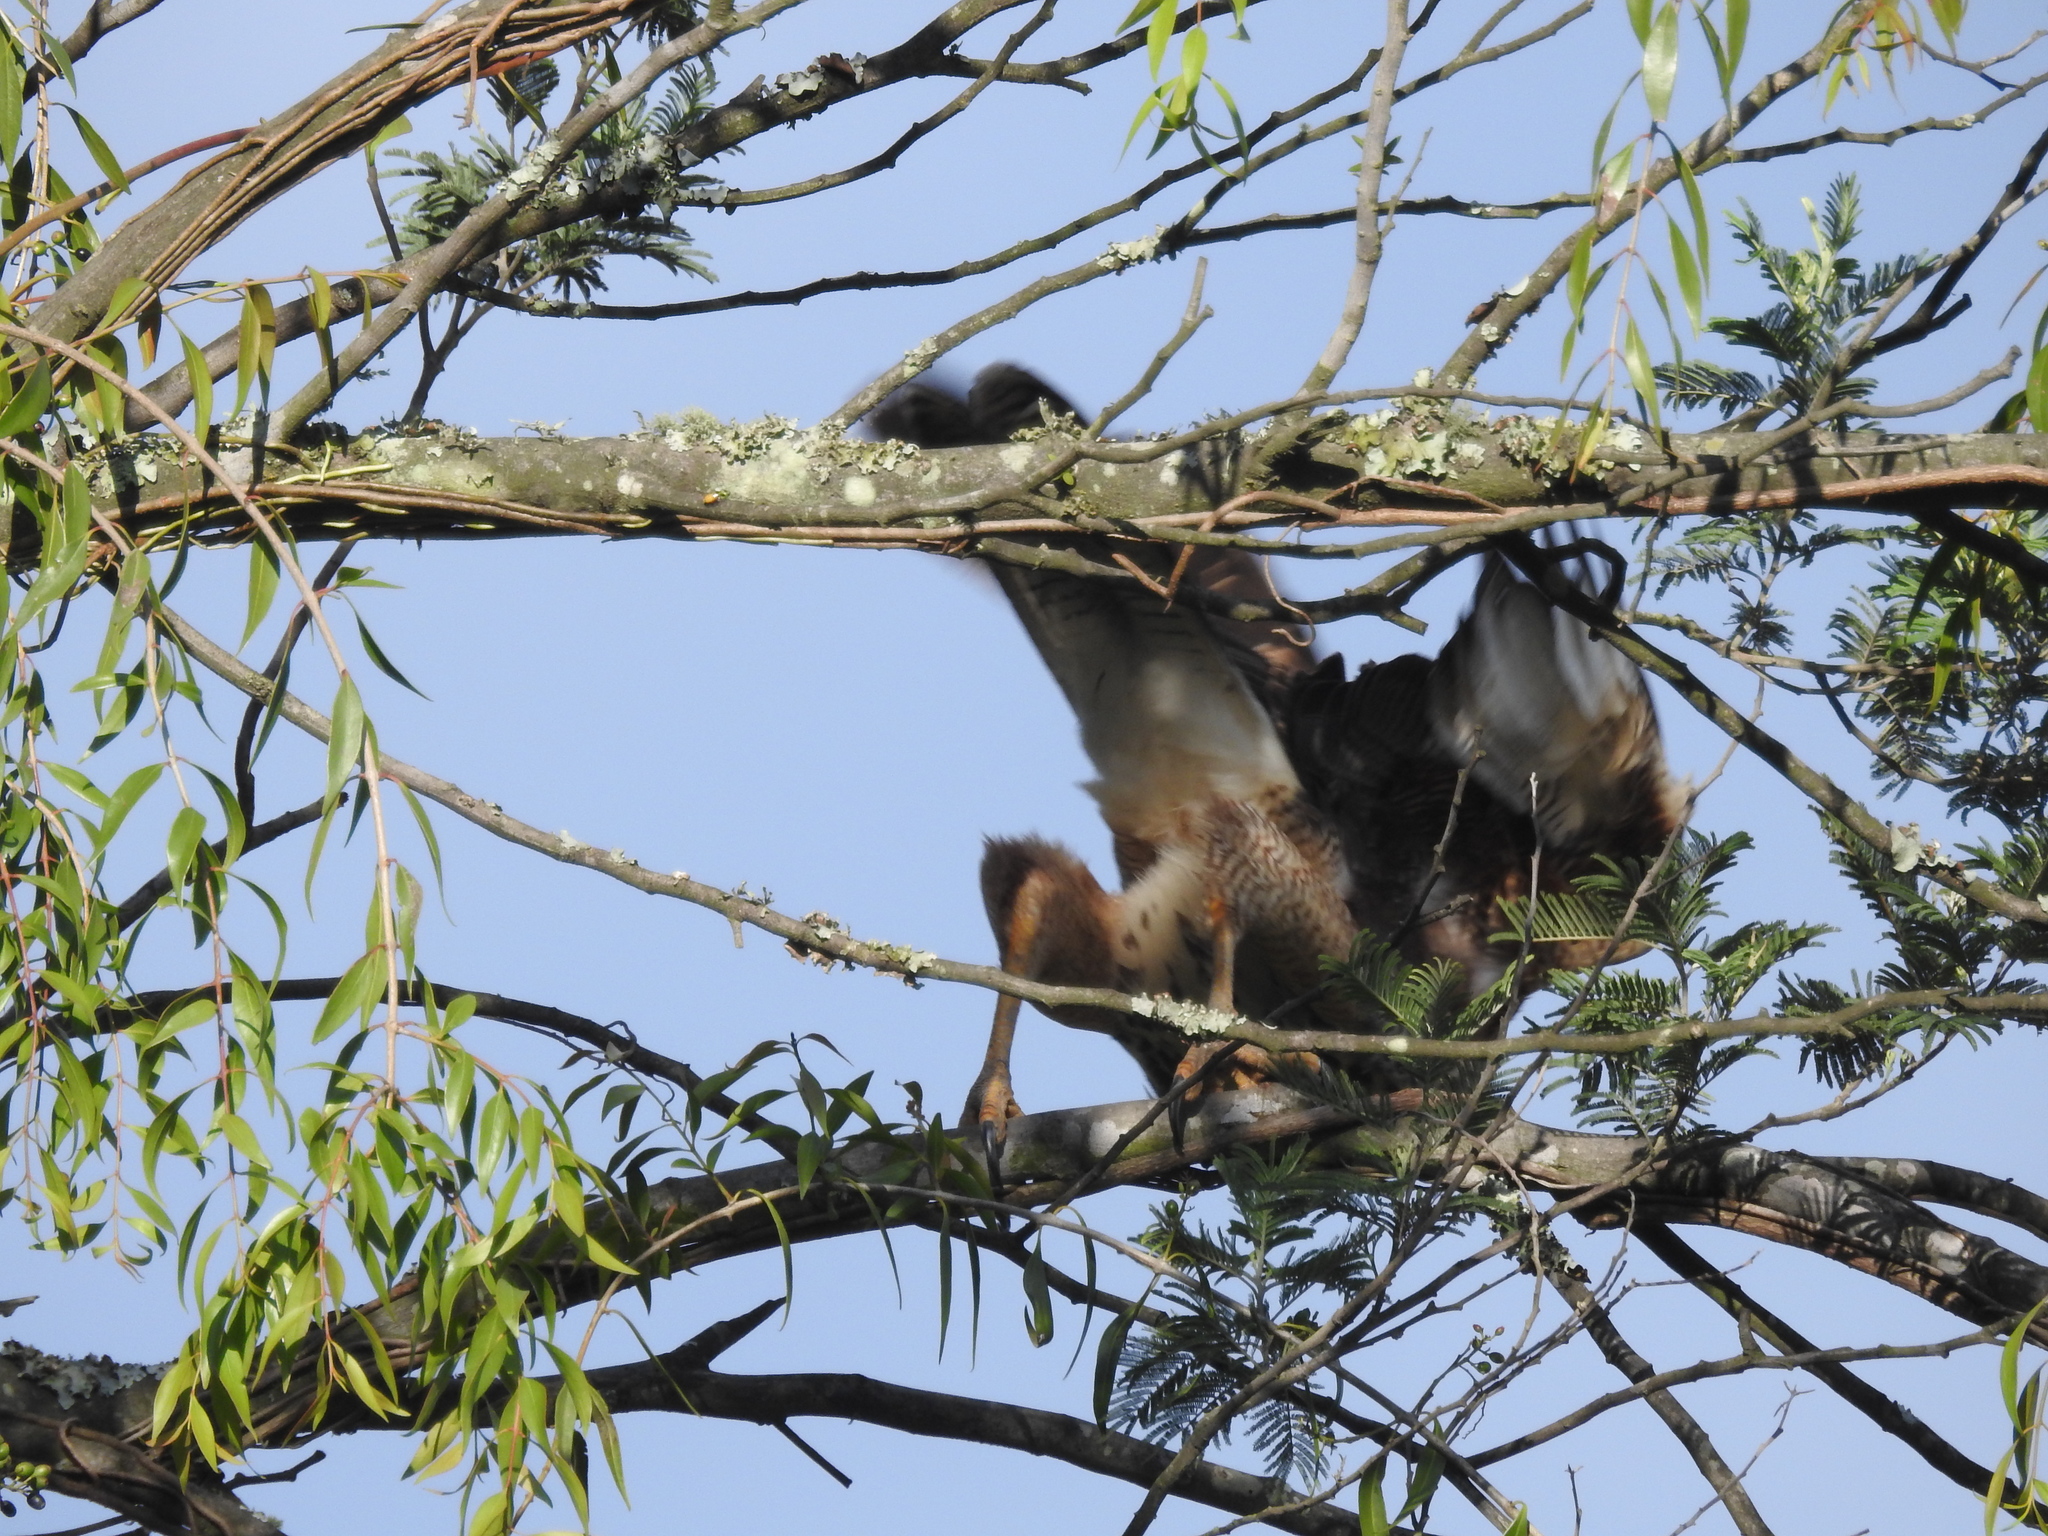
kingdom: Animalia
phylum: Chordata
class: Aves
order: Accipitriformes
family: Accipitridae
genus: Parabuteo
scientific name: Parabuteo unicinctus
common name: Harris's hawk
